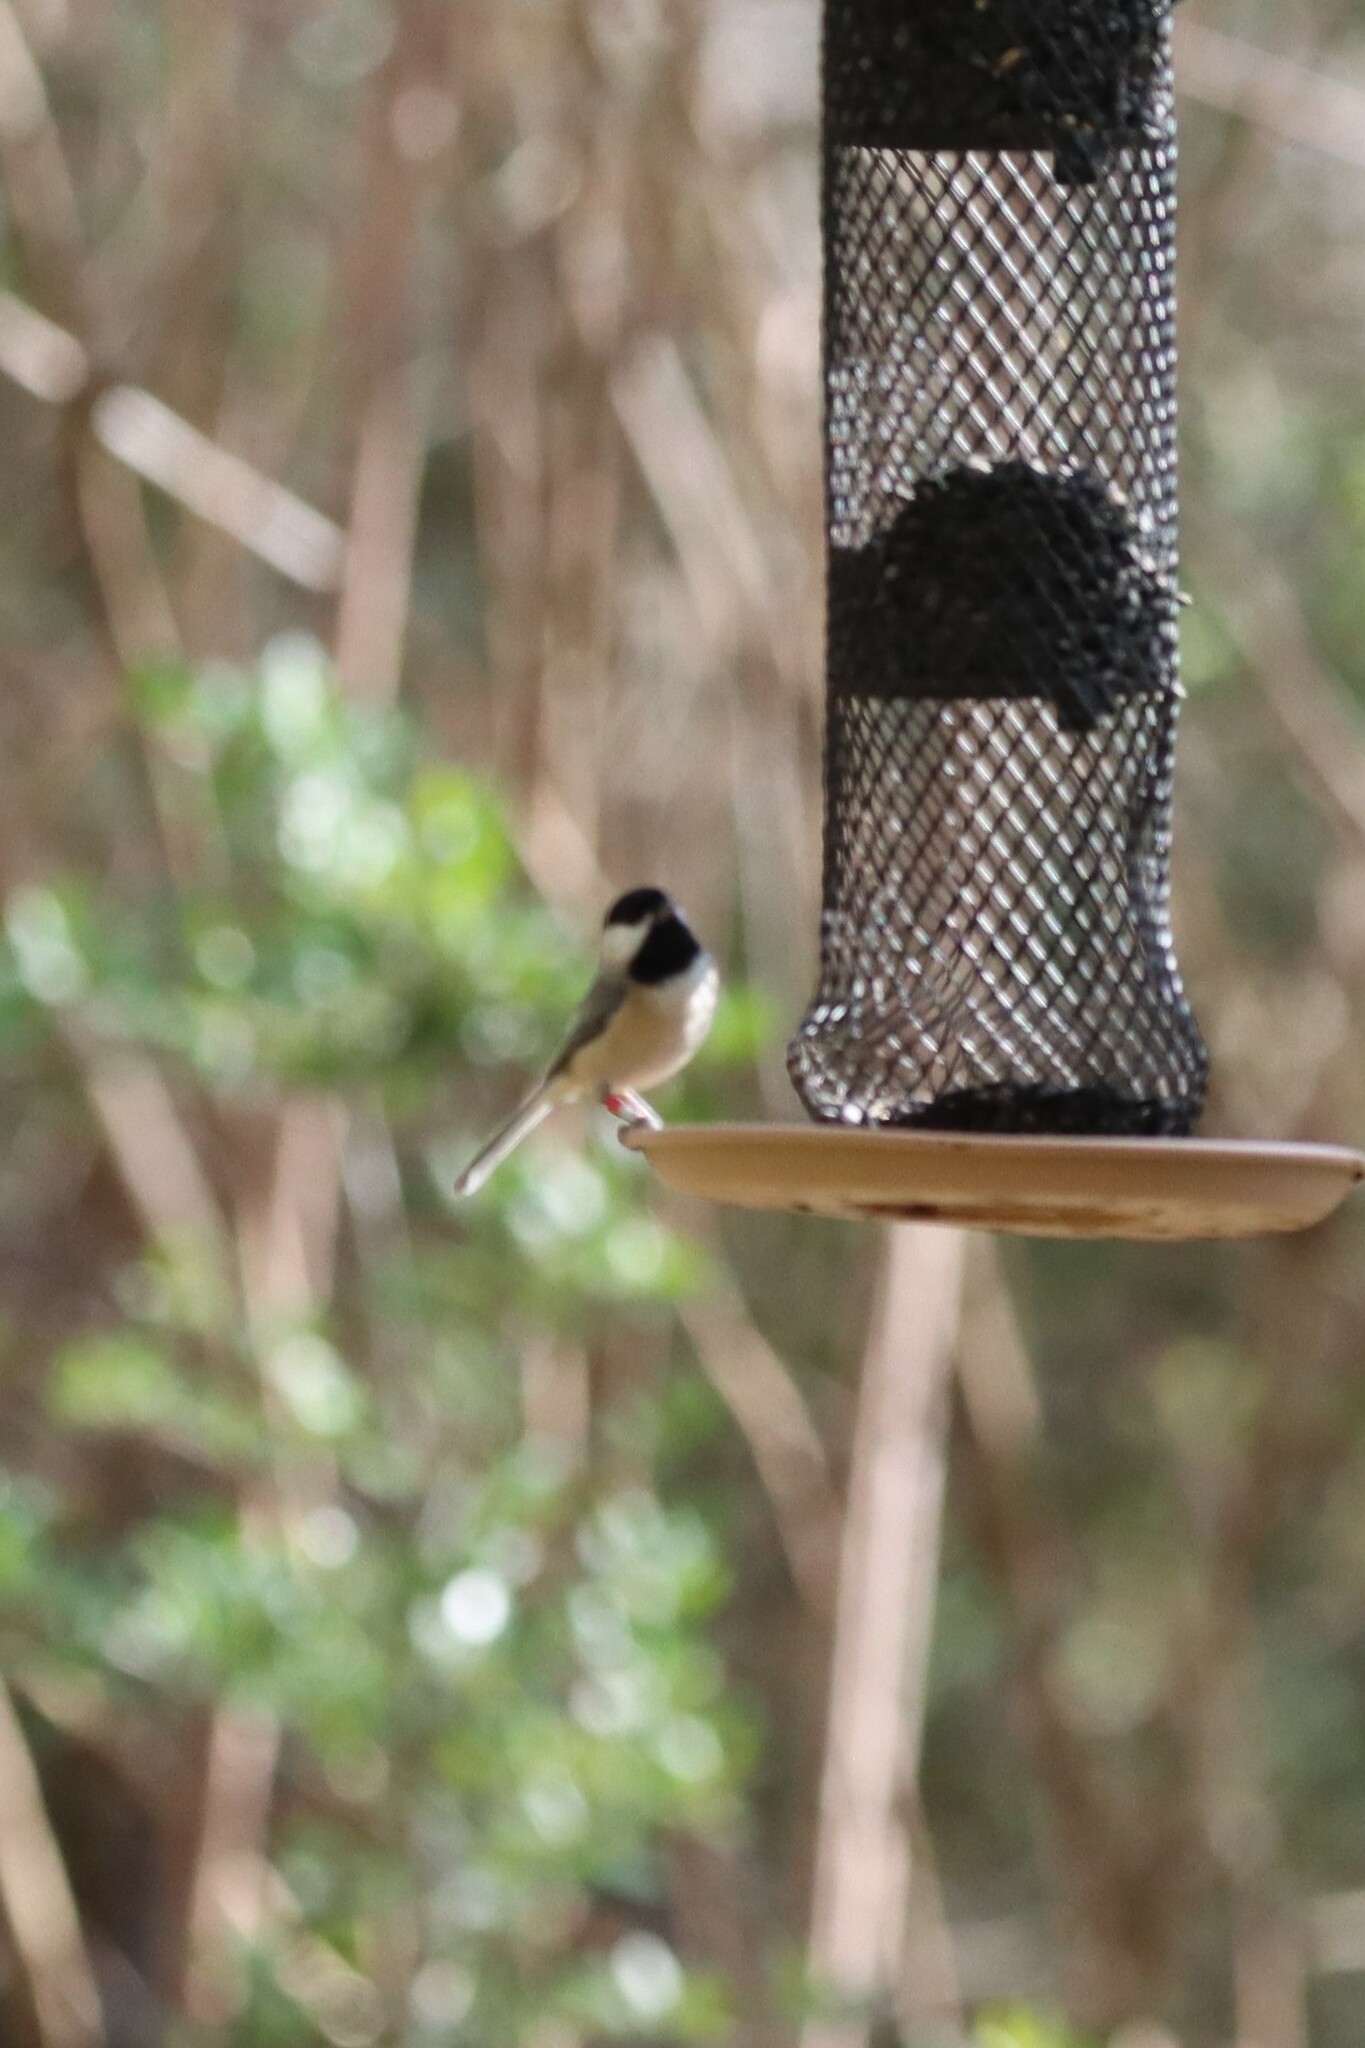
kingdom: Animalia
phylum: Chordata
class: Aves
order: Passeriformes
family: Paridae
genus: Poecile
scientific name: Poecile carolinensis
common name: Carolina chickadee
